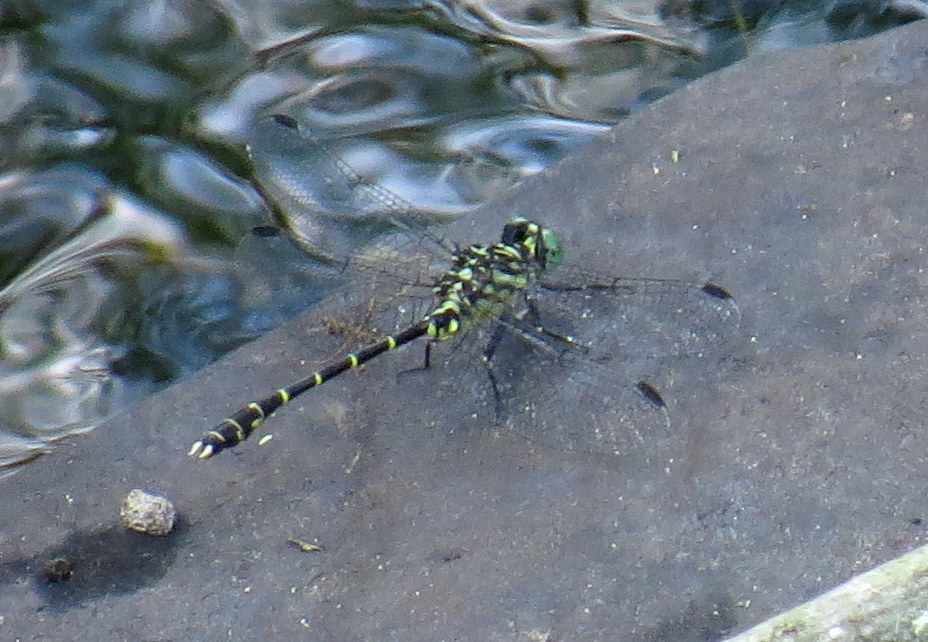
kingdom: Animalia
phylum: Arthropoda
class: Insecta
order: Odonata
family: Gomphidae
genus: Stylogomphus
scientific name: Stylogomphus albistylus
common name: Eastern least clubtail
